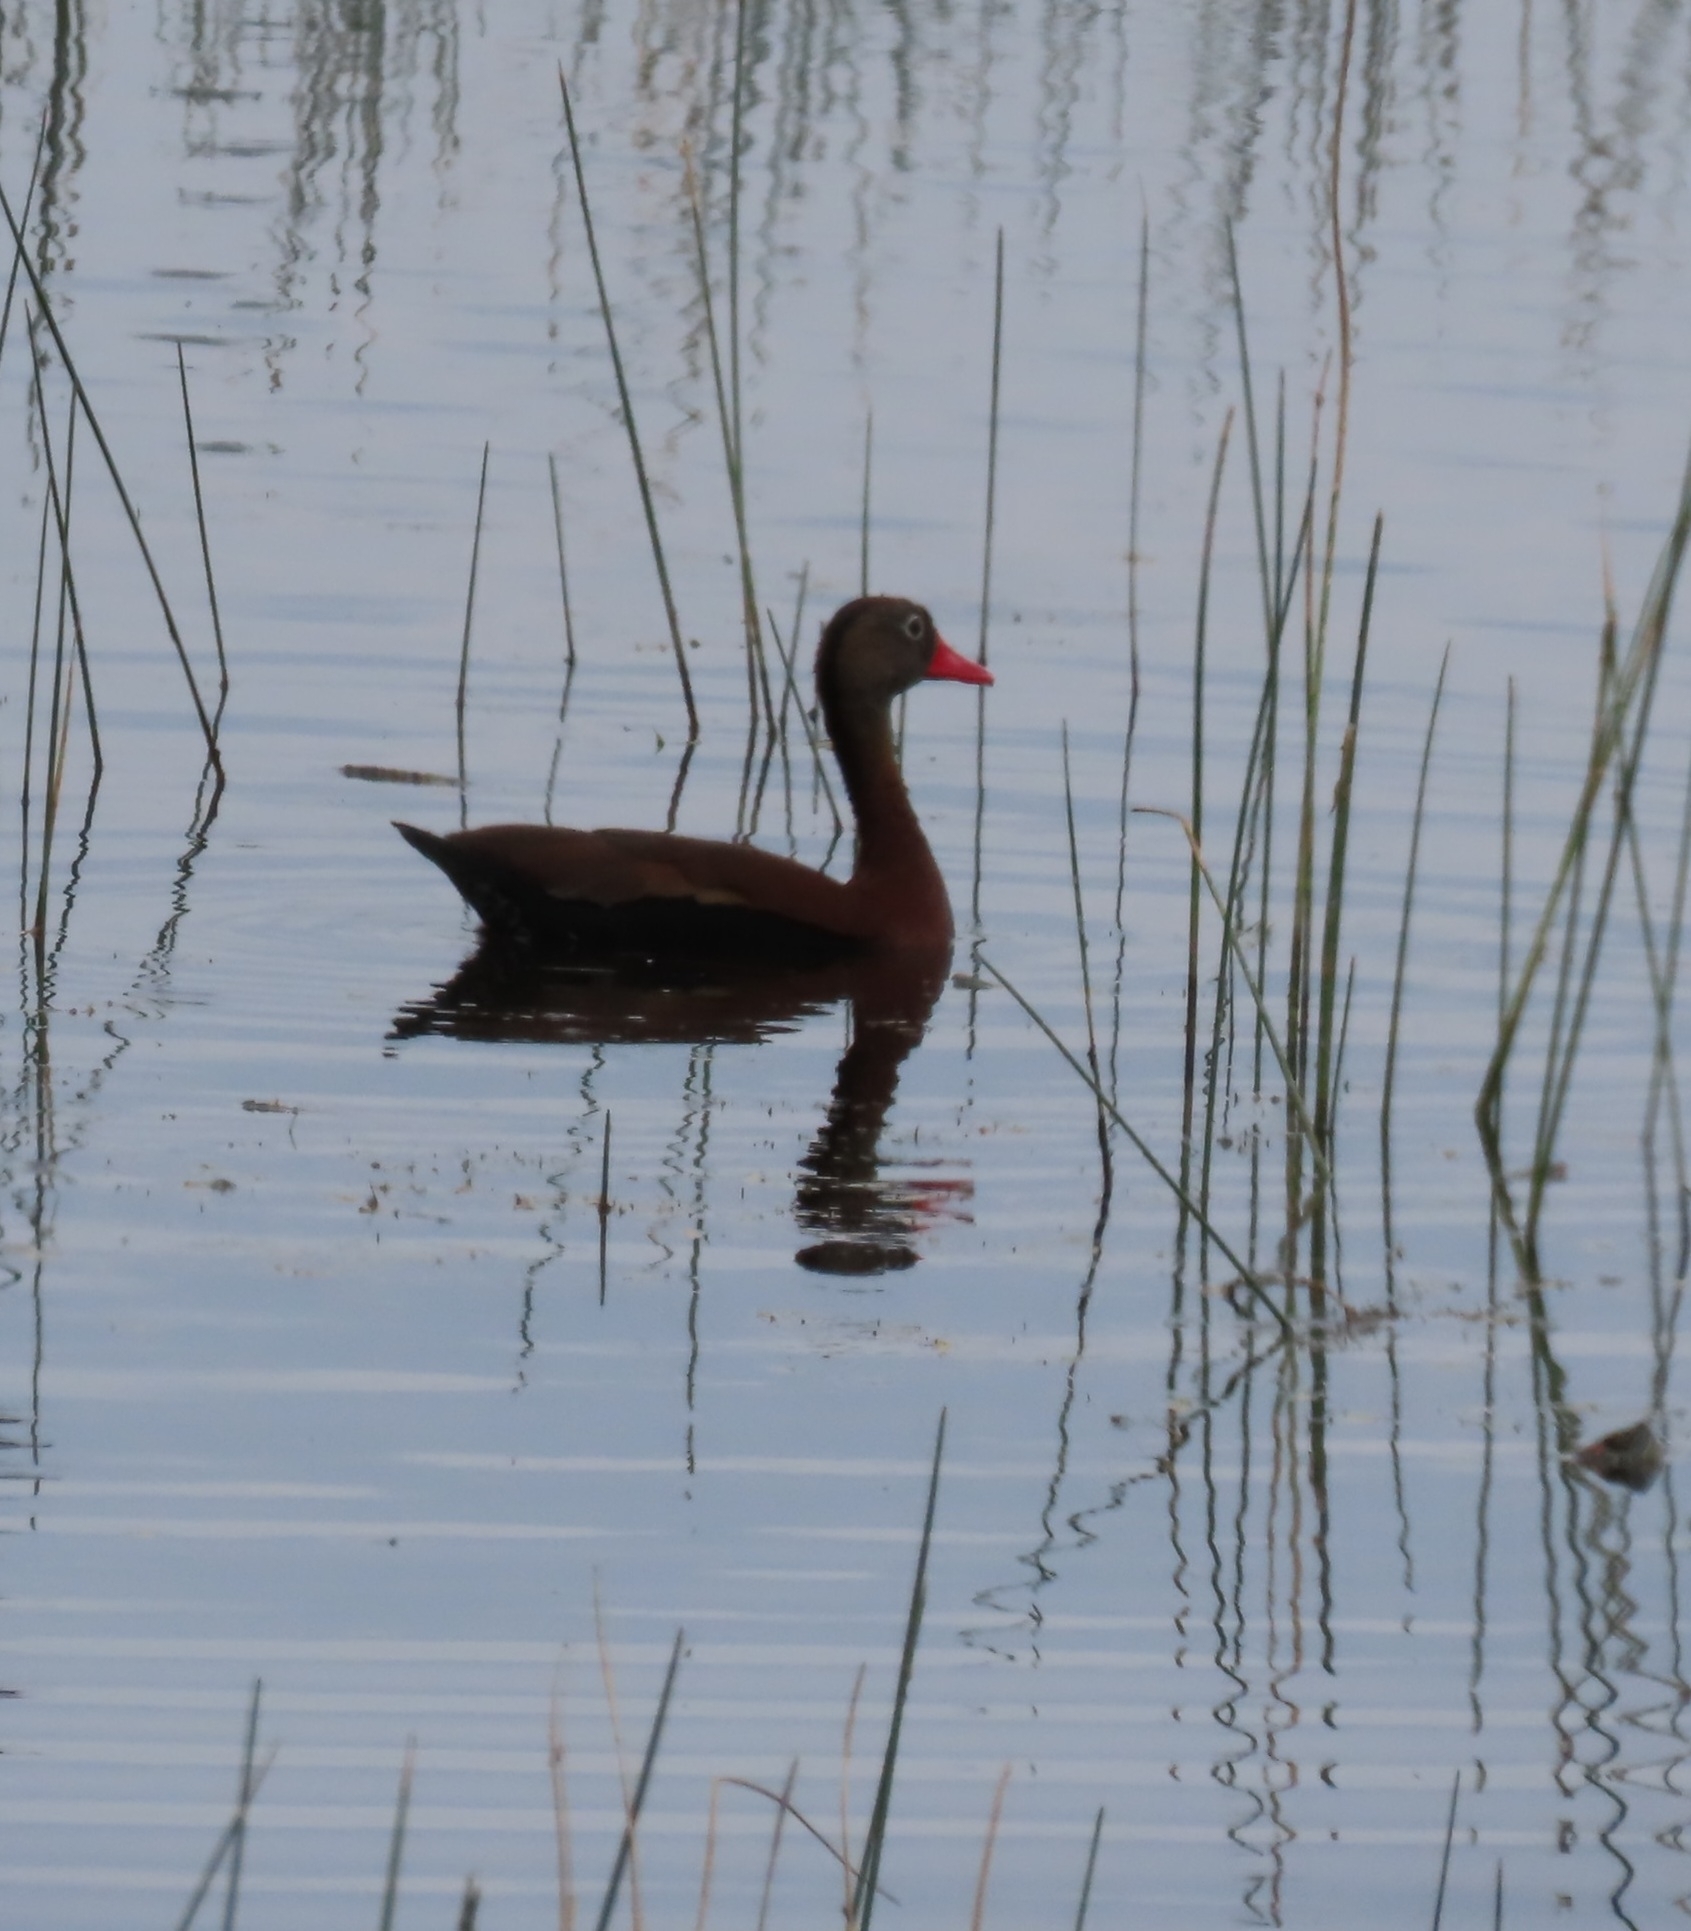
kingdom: Animalia
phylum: Chordata
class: Aves
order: Anseriformes
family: Anatidae
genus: Dendrocygna
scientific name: Dendrocygna autumnalis
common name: Black-bellied whistling duck
